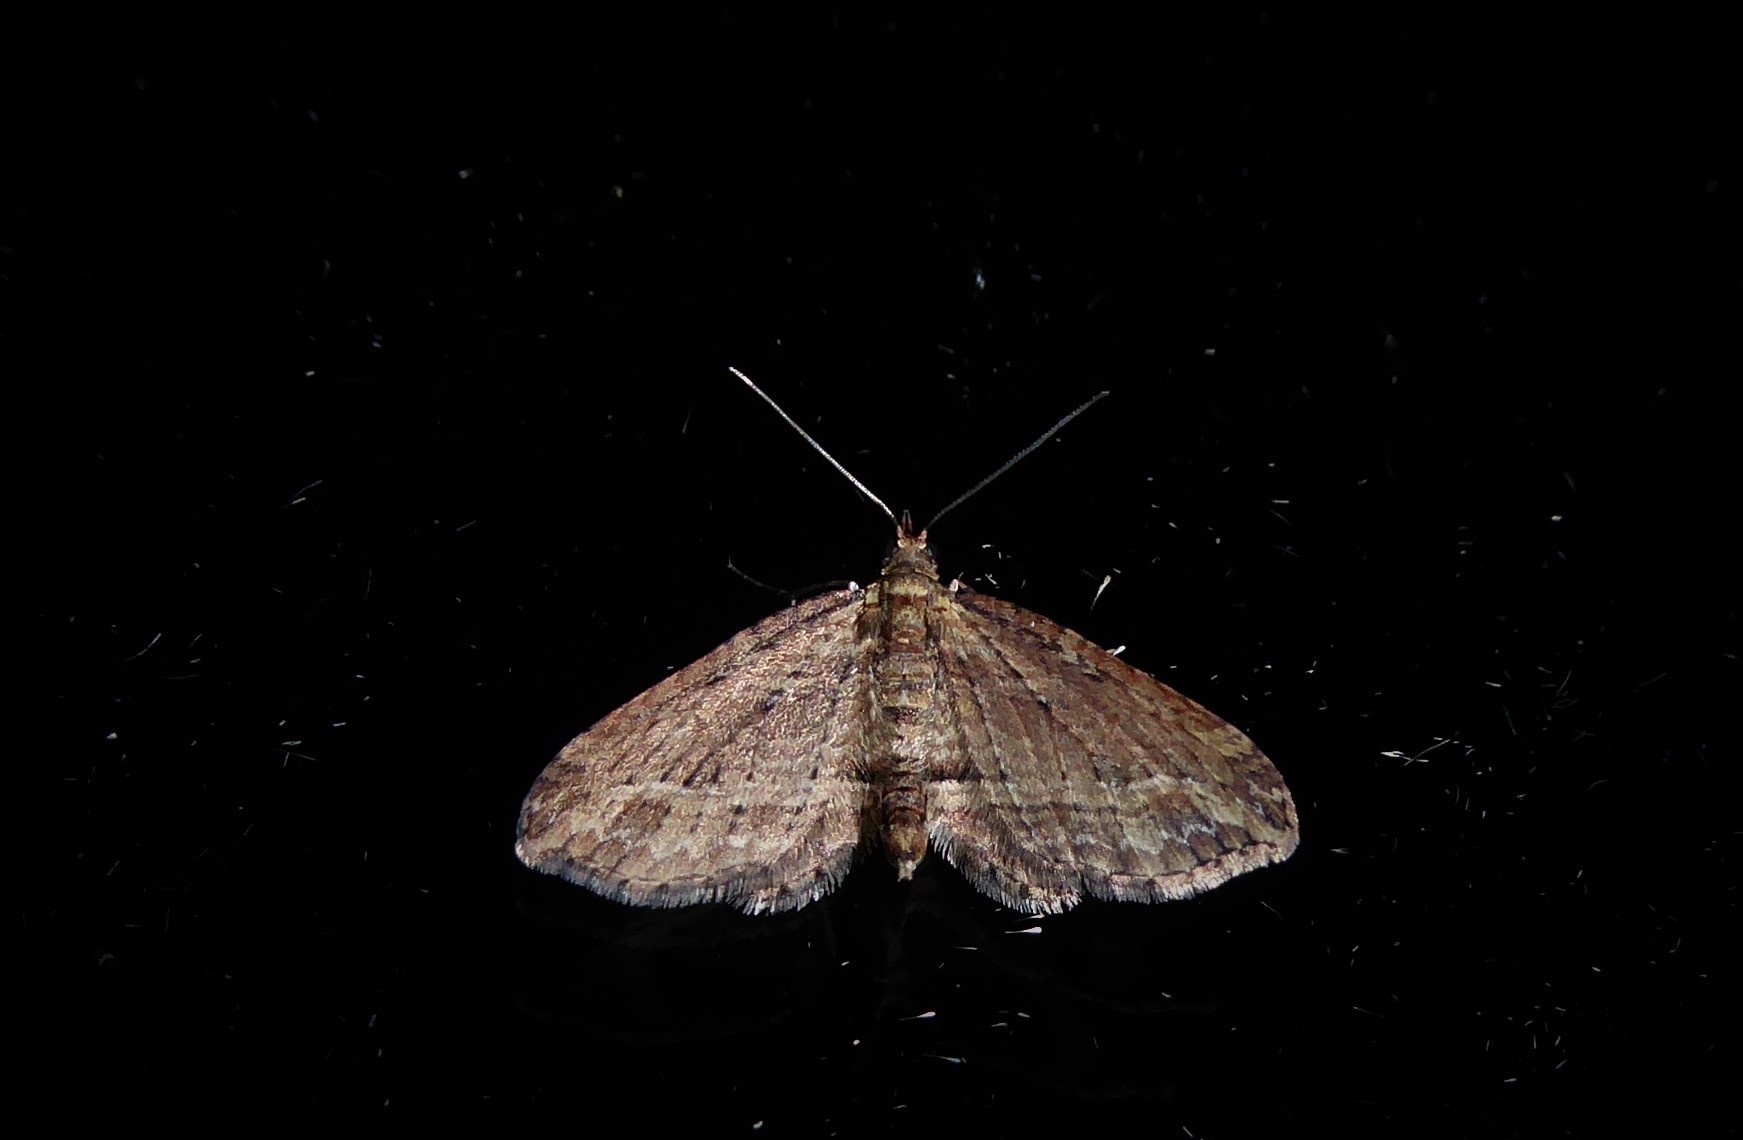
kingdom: Animalia
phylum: Arthropoda
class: Insecta
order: Lepidoptera
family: Geometridae
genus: Chloroclystis
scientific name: Chloroclystis filata
